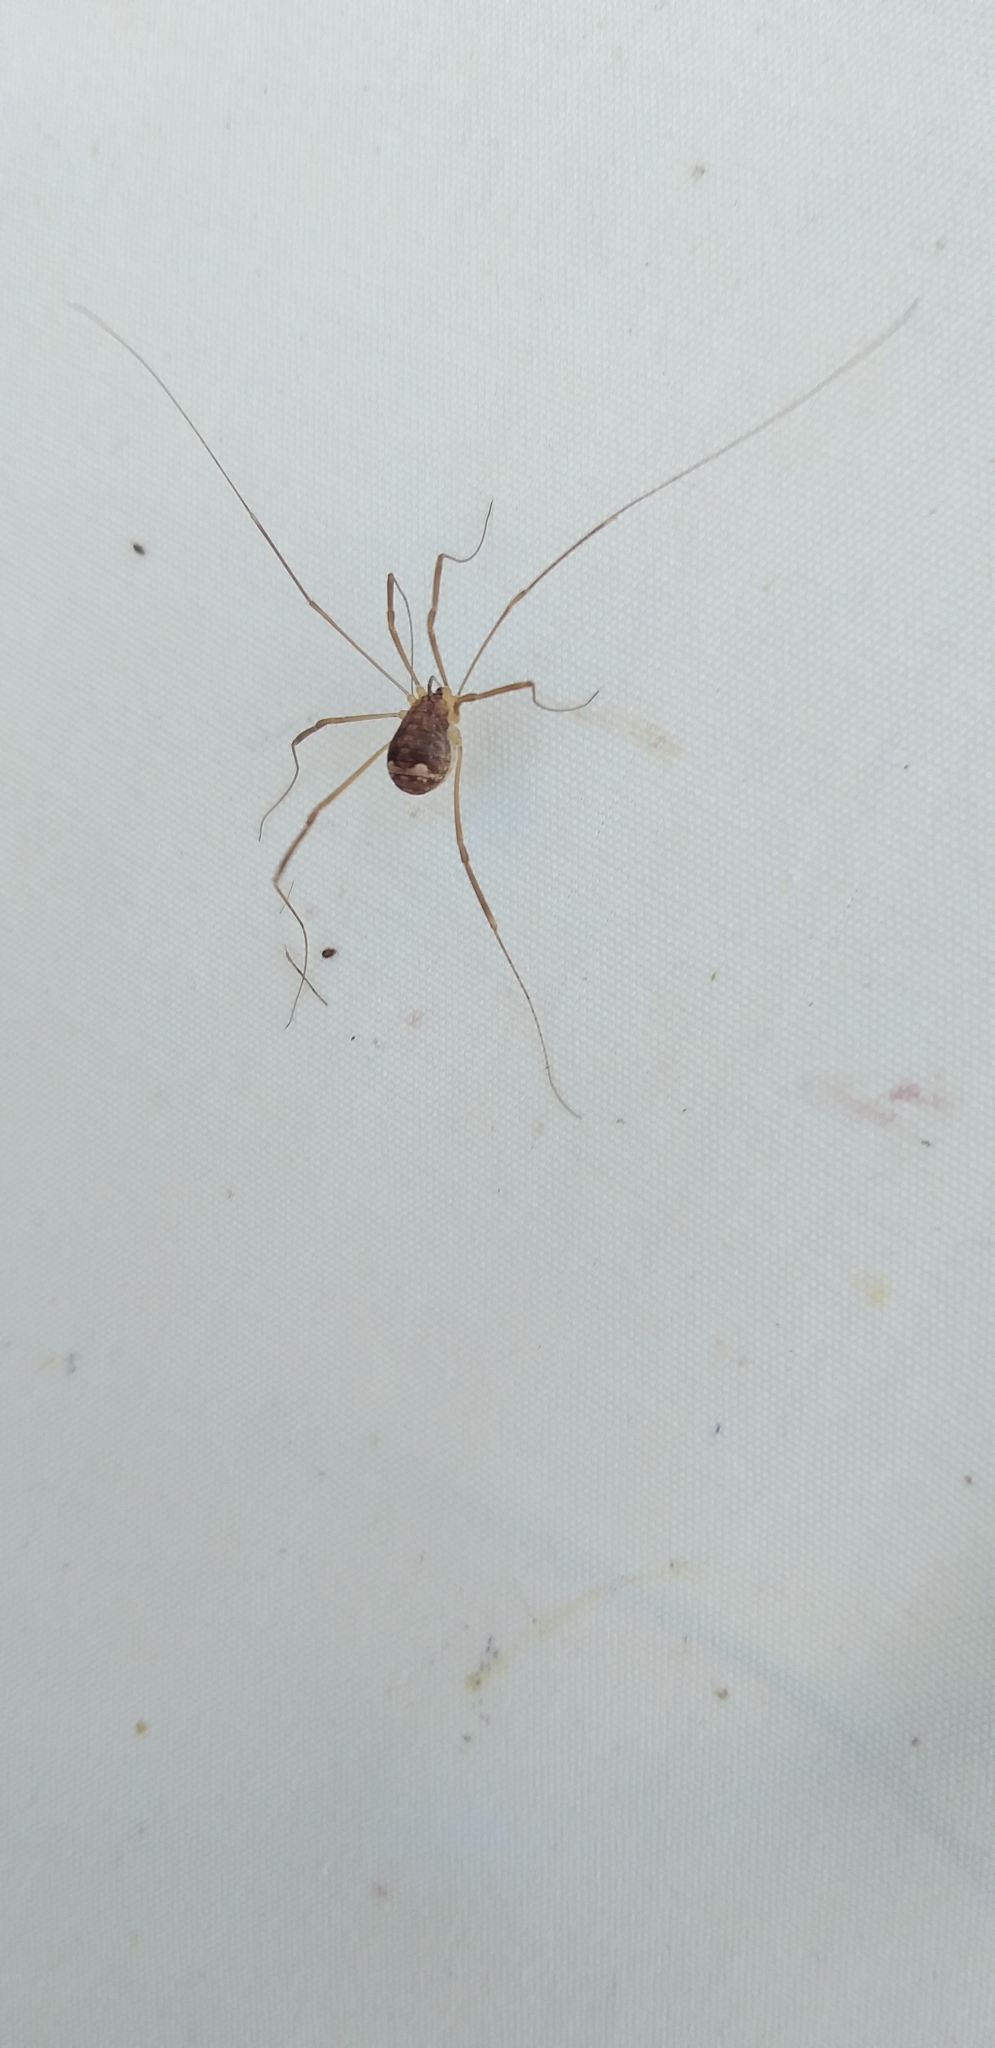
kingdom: Animalia
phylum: Arthropoda
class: Arachnida
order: Opiliones
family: Sclerosomatidae
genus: Nelima
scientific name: Nelima doriae
